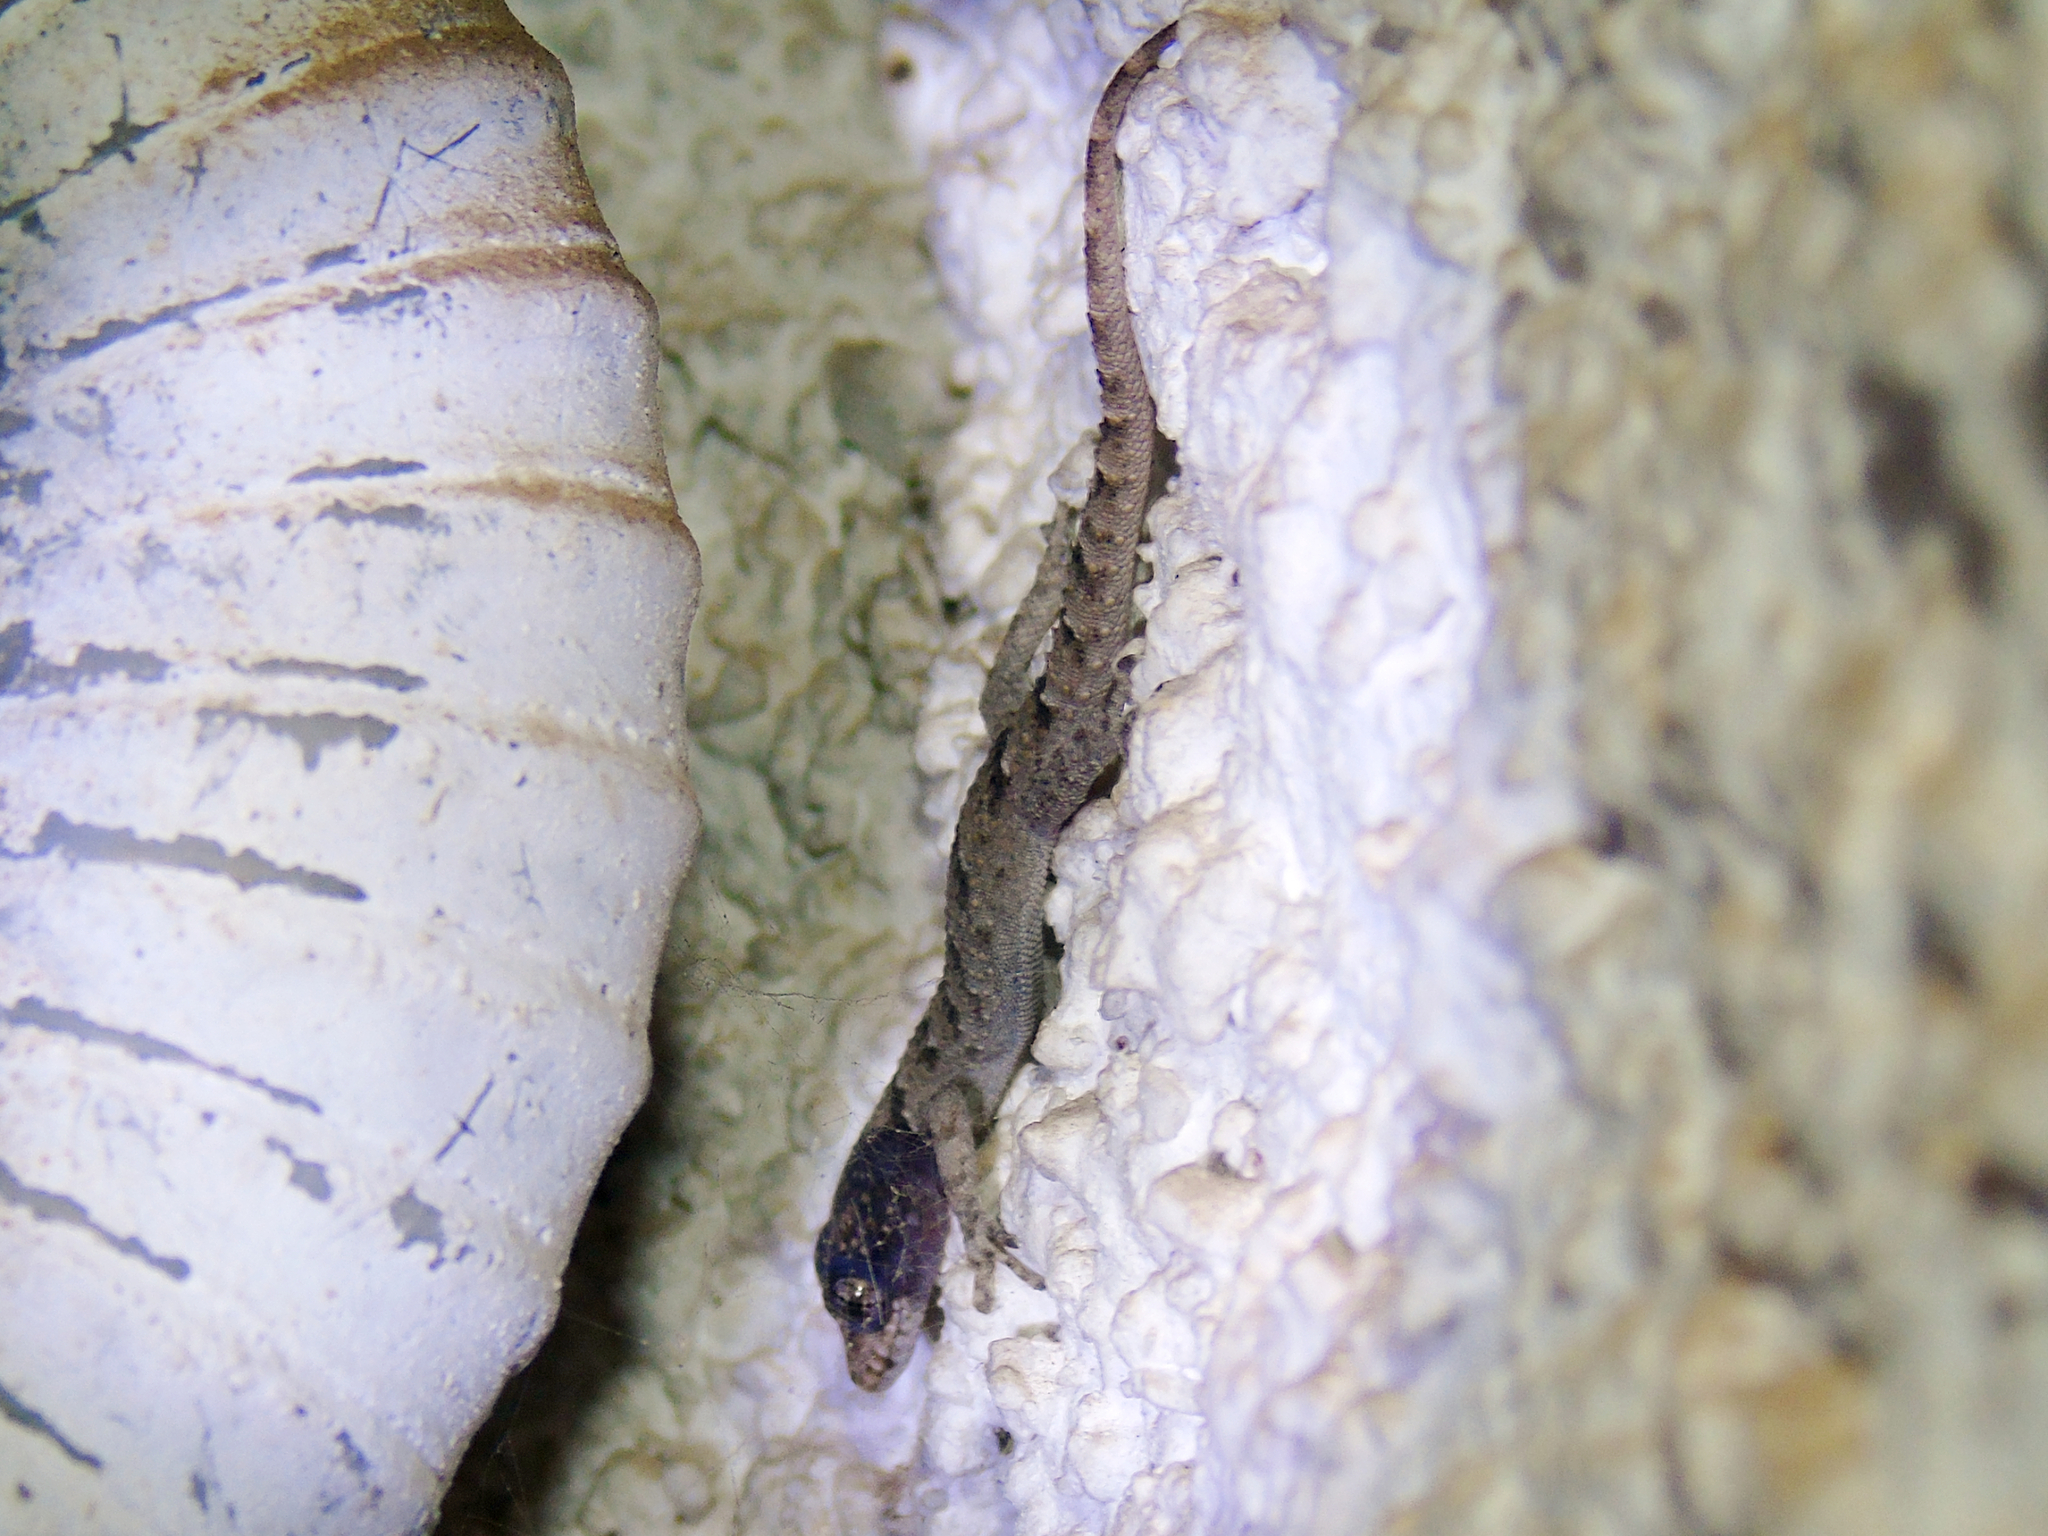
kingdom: Animalia
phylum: Chordata
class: Squamata
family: Gekkonidae
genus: Mediodactylus
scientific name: Mediodactylus kotschyi
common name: Kotschy's gecko
